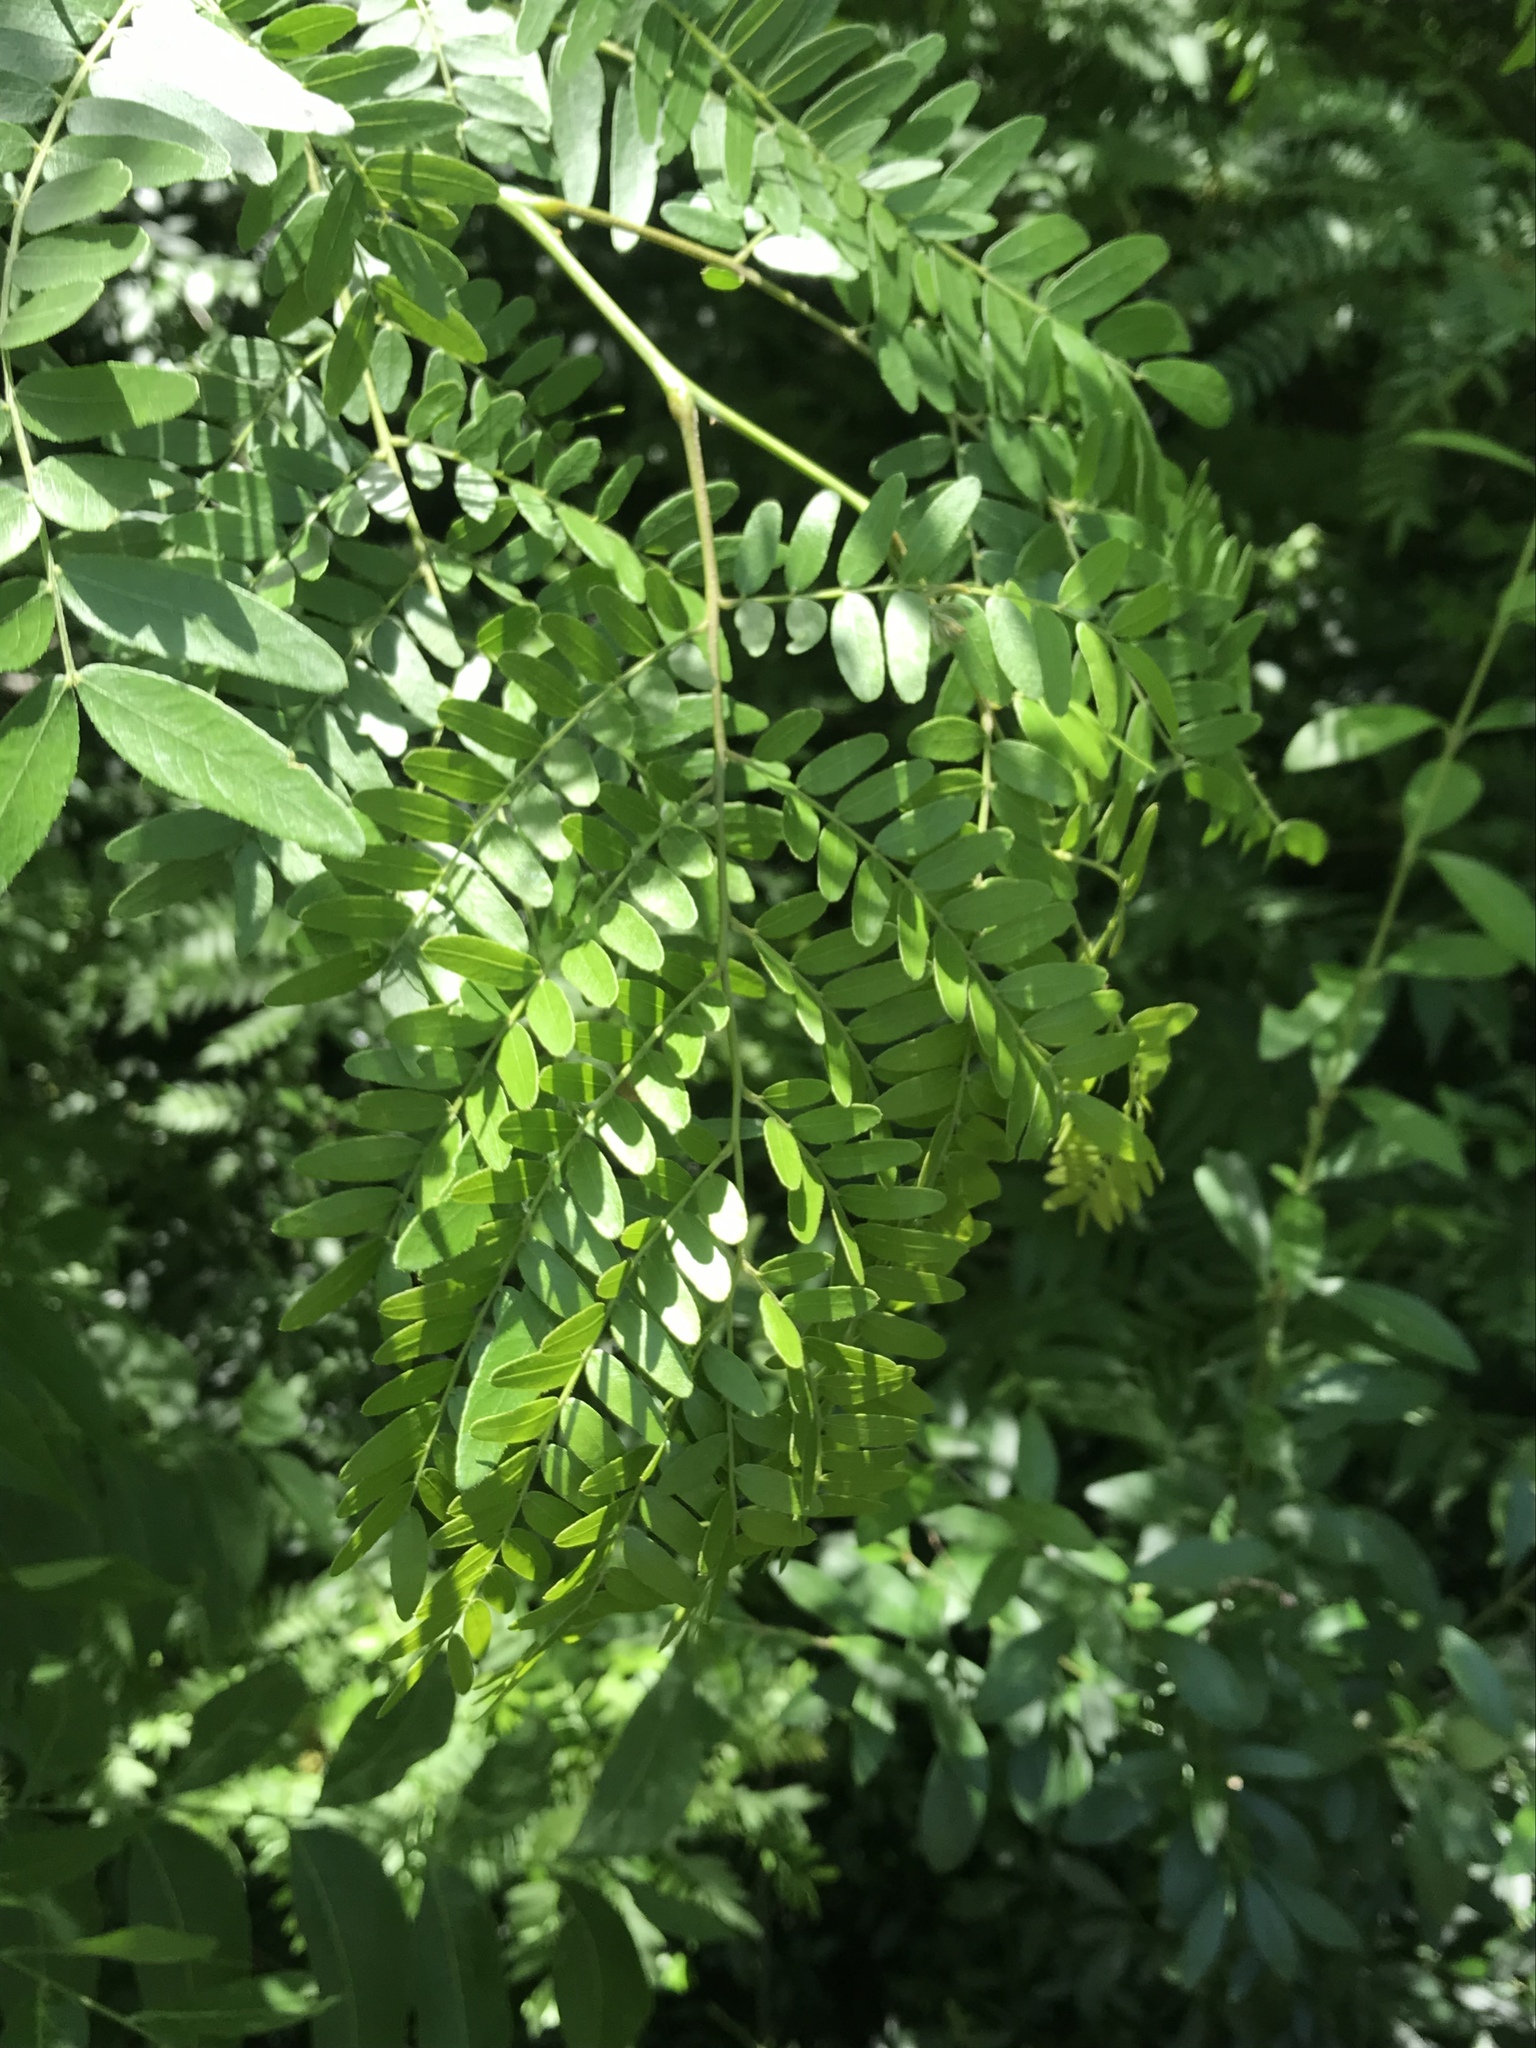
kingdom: Plantae
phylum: Tracheophyta
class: Magnoliopsida
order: Fabales
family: Fabaceae
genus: Gleditsia
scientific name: Gleditsia triacanthos
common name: Common honeylocust
